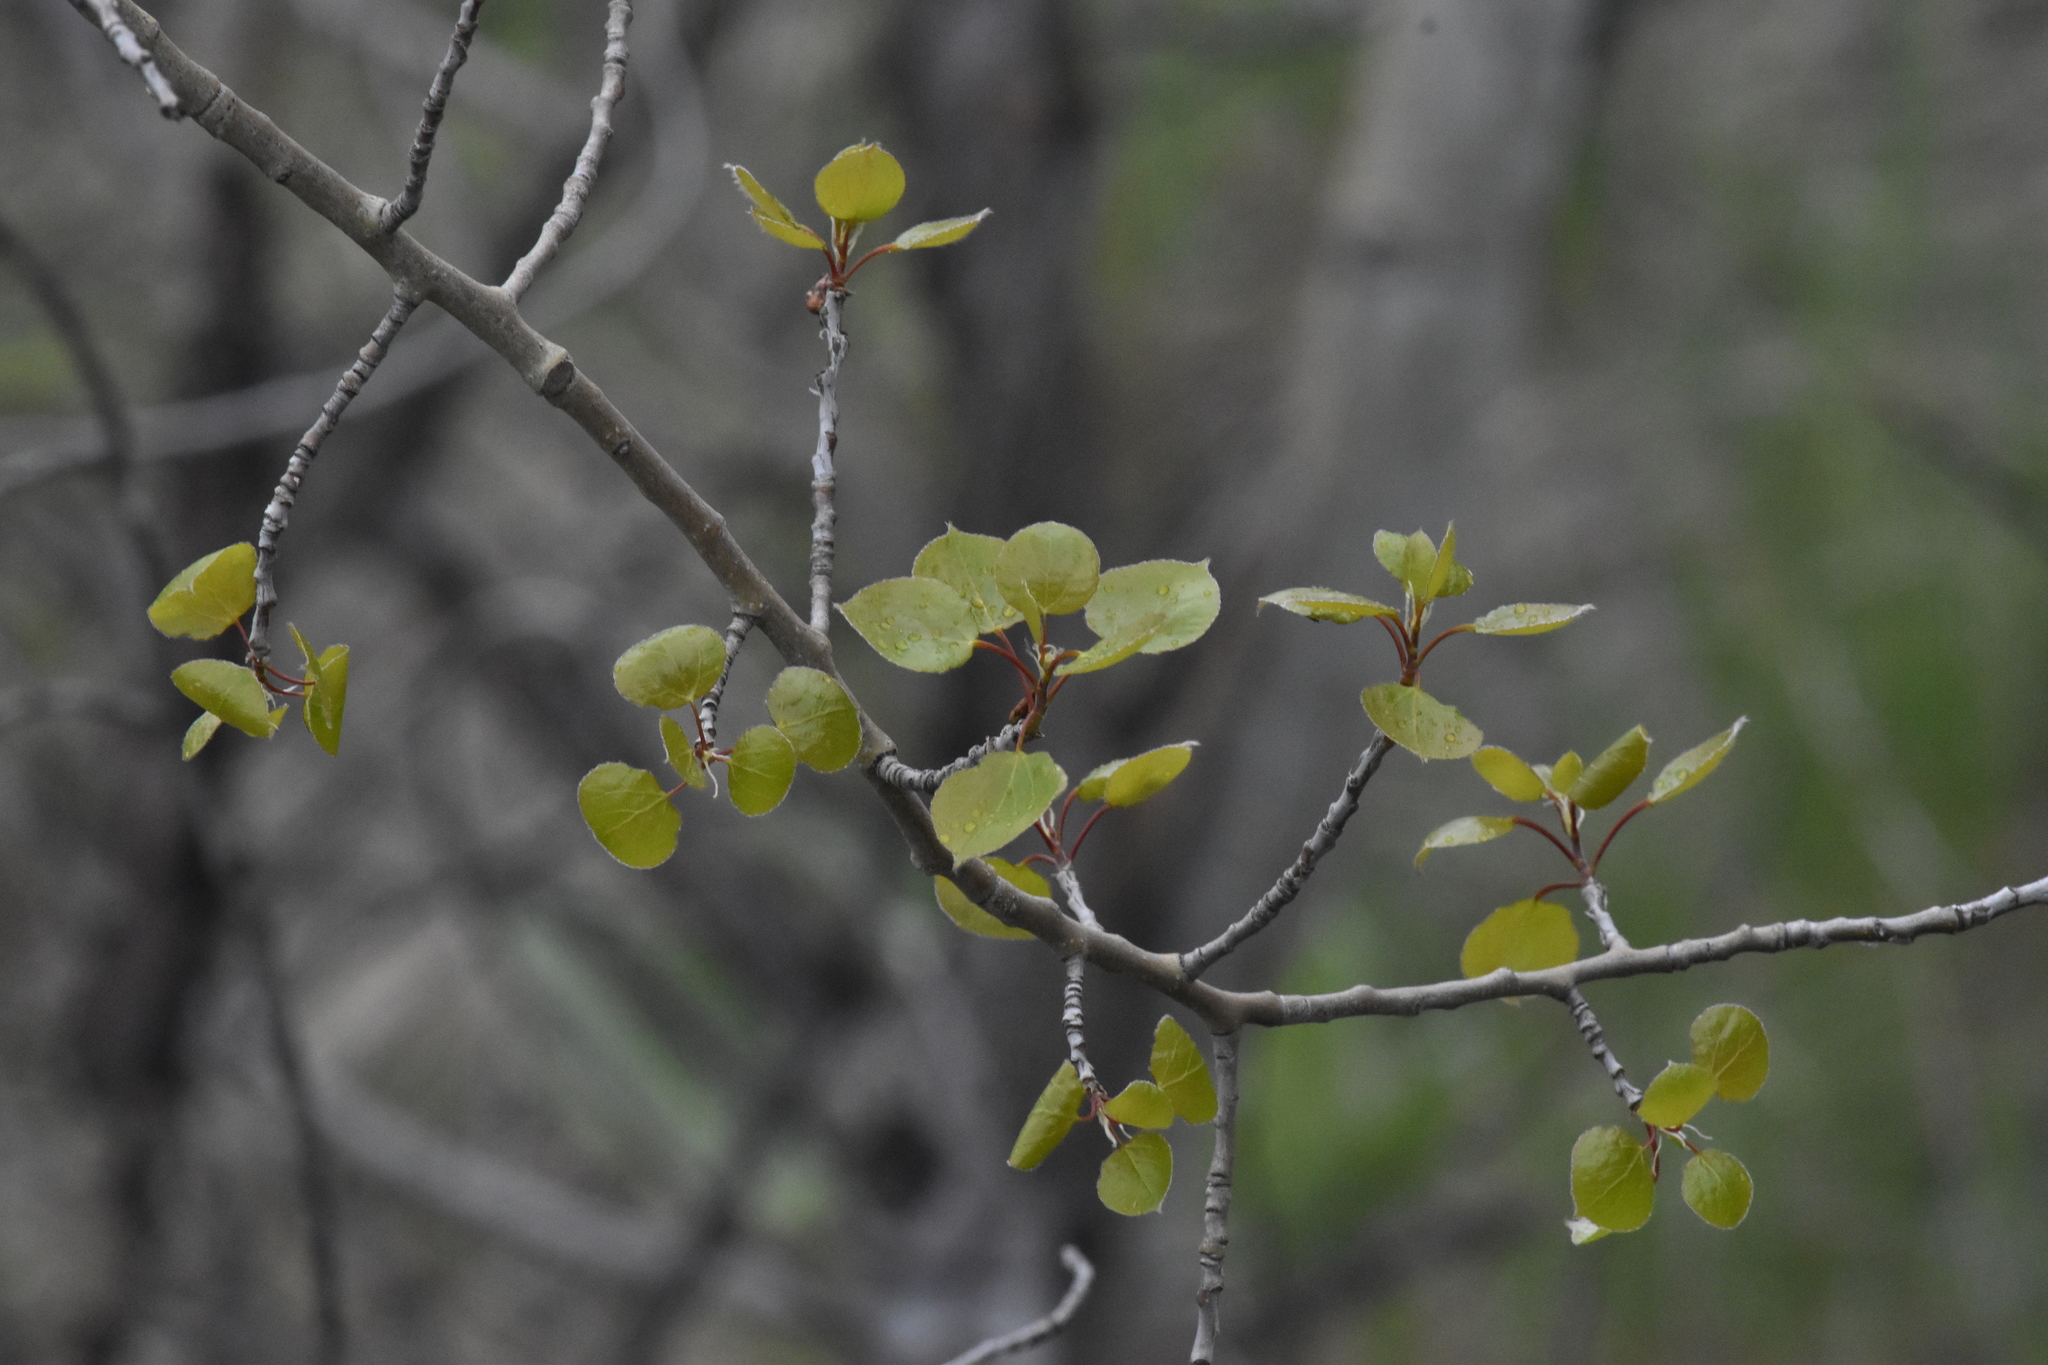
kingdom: Plantae
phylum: Tracheophyta
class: Magnoliopsida
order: Malpighiales
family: Salicaceae
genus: Populus
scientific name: Populus tremuloides
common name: Quaking aspen
